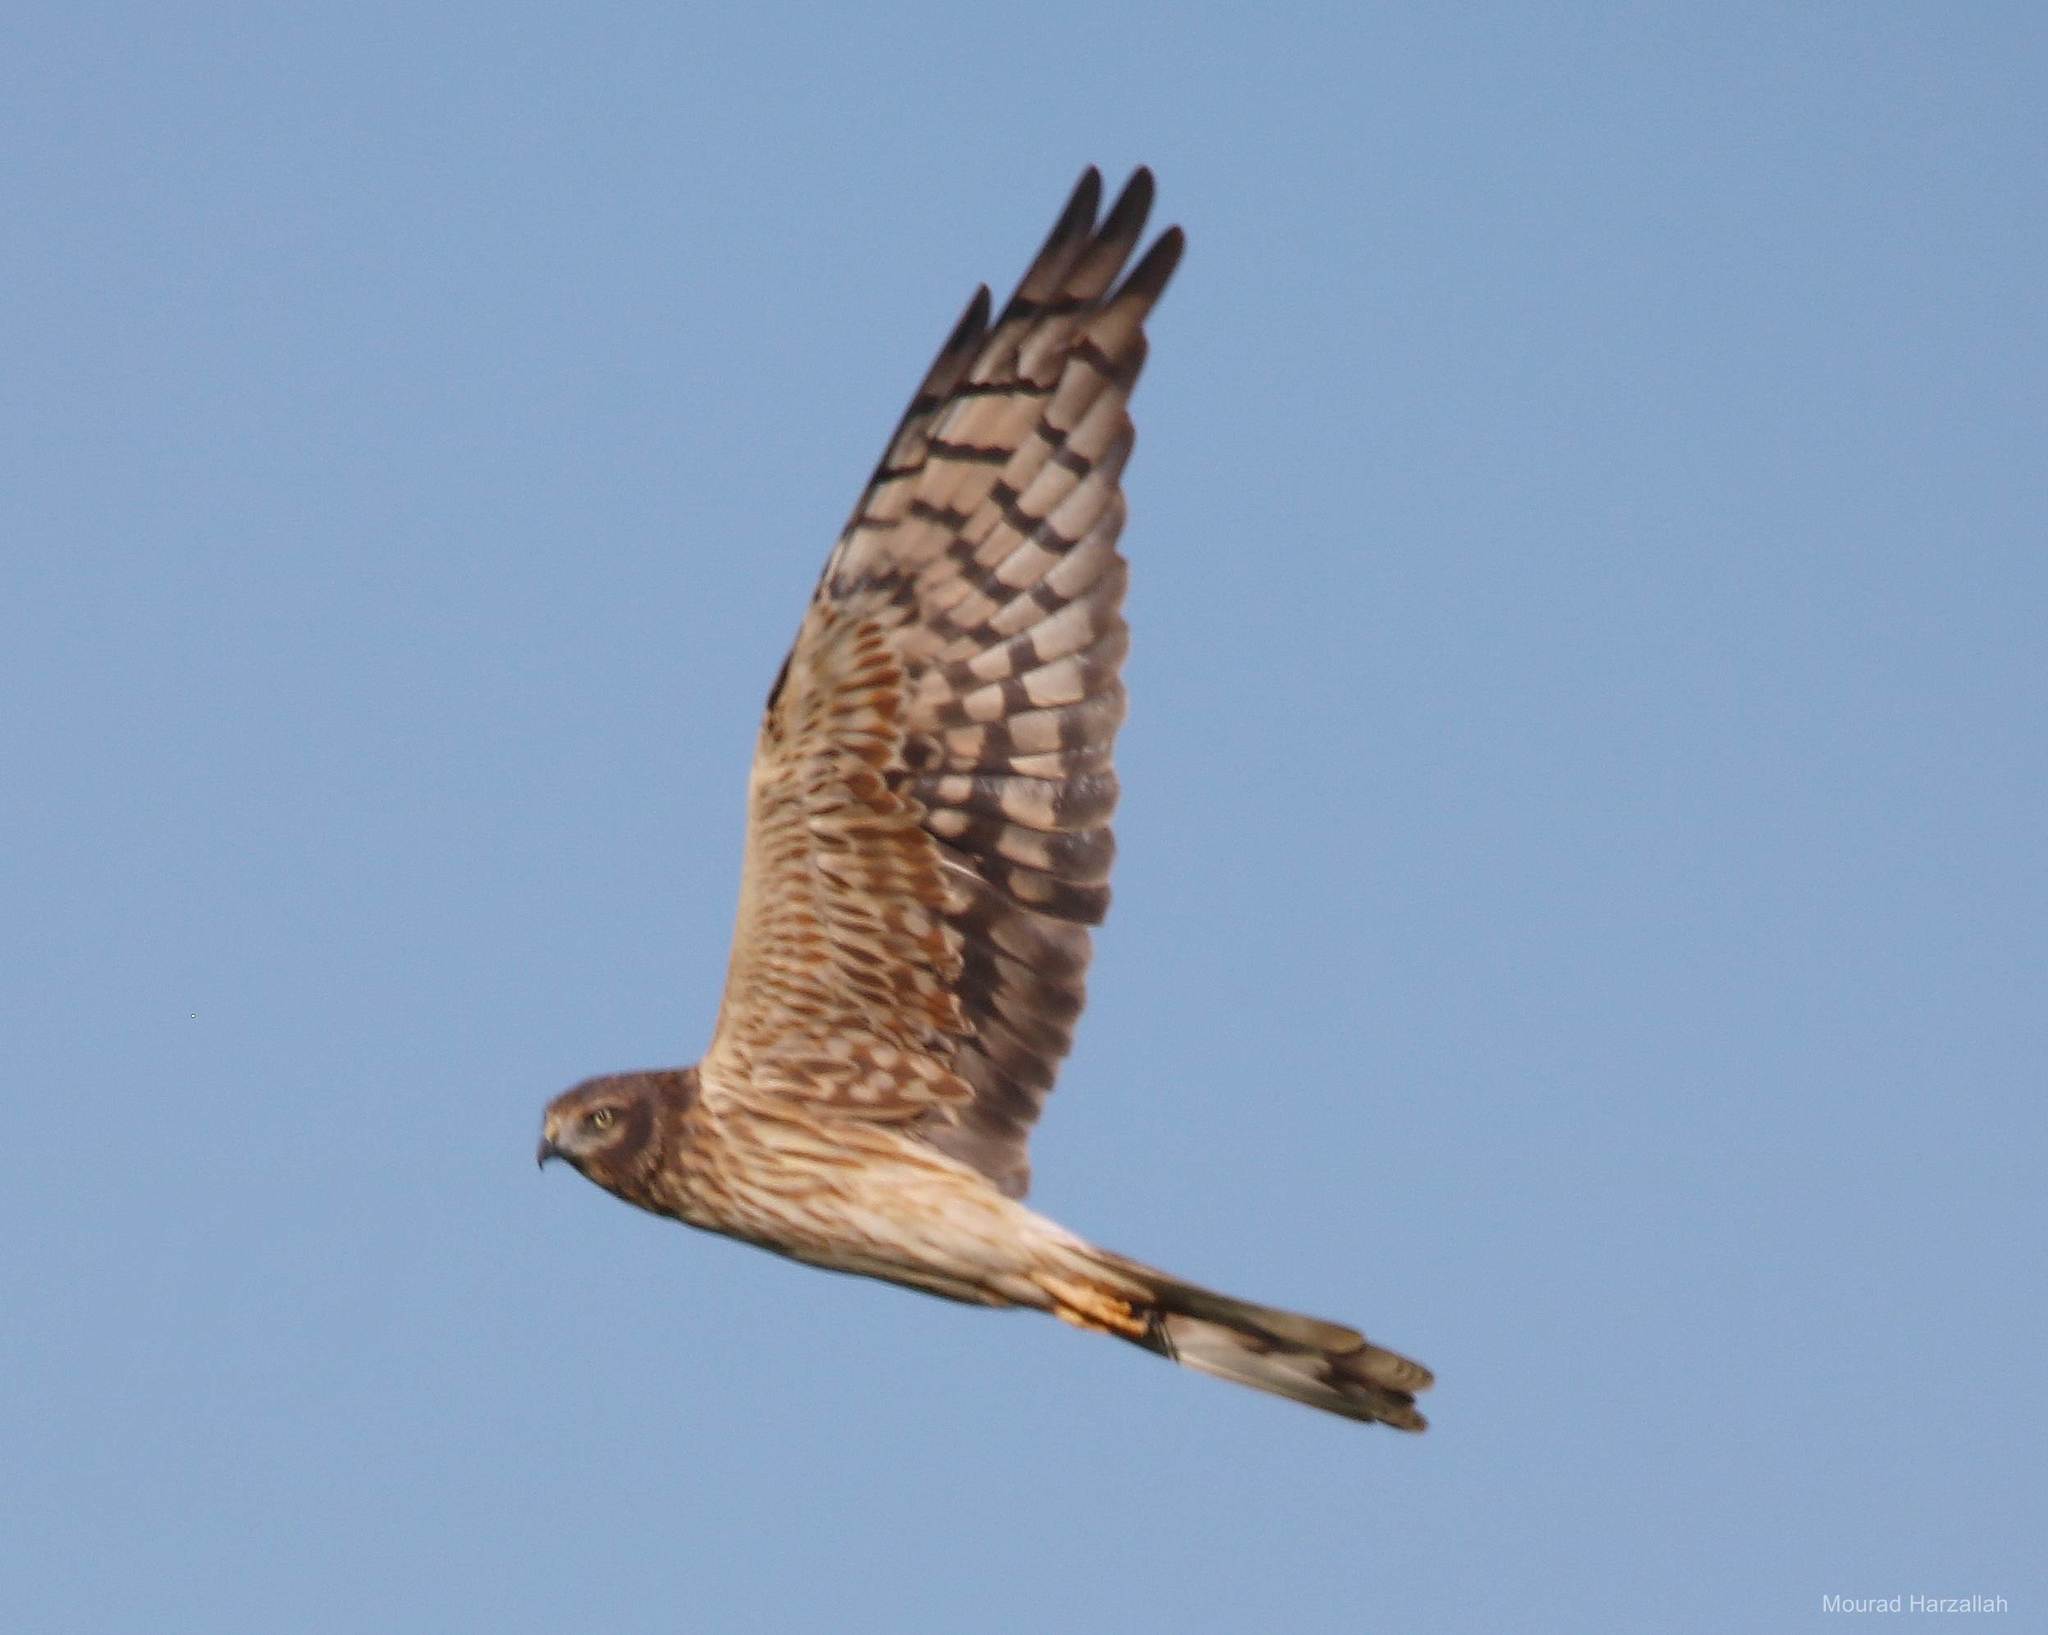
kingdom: Animalia
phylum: Chordata
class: Aves
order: Accipitriformes
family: Accipitridae
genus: Circus
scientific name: Circus pygargus
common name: Montagu's harrier
